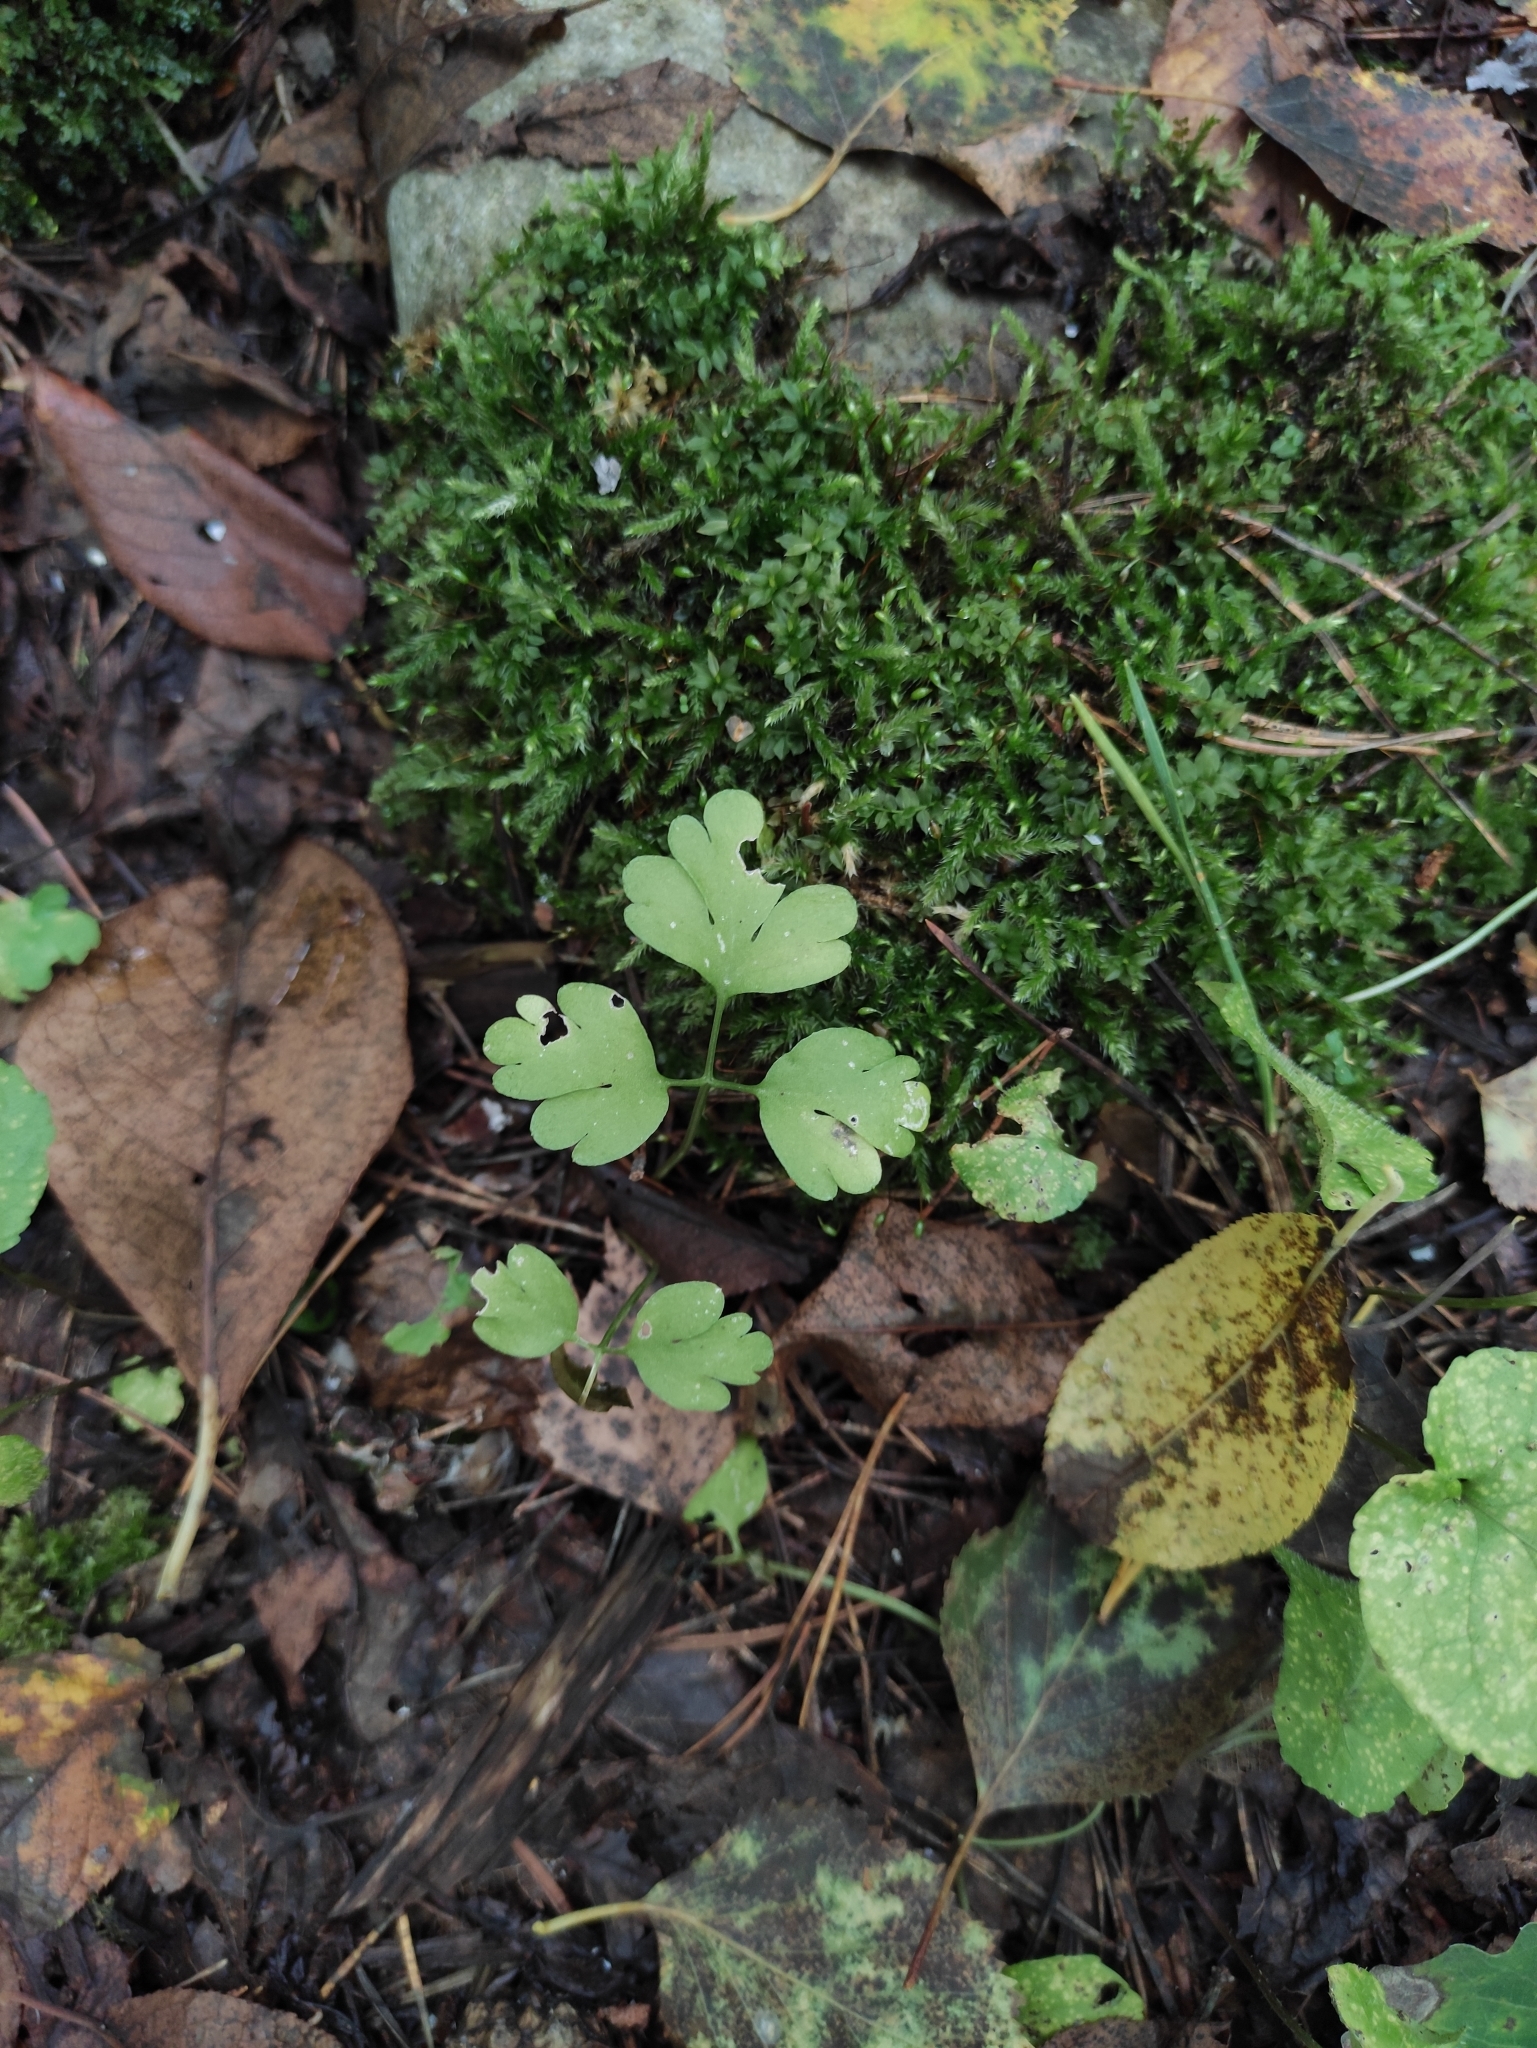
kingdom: Plantae
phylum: Tracheophyta
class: Magnoliopsida
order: Dipsacales
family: Viburnaceae
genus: Adoxa
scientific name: Adoxa moschatellina
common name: Moschatel
